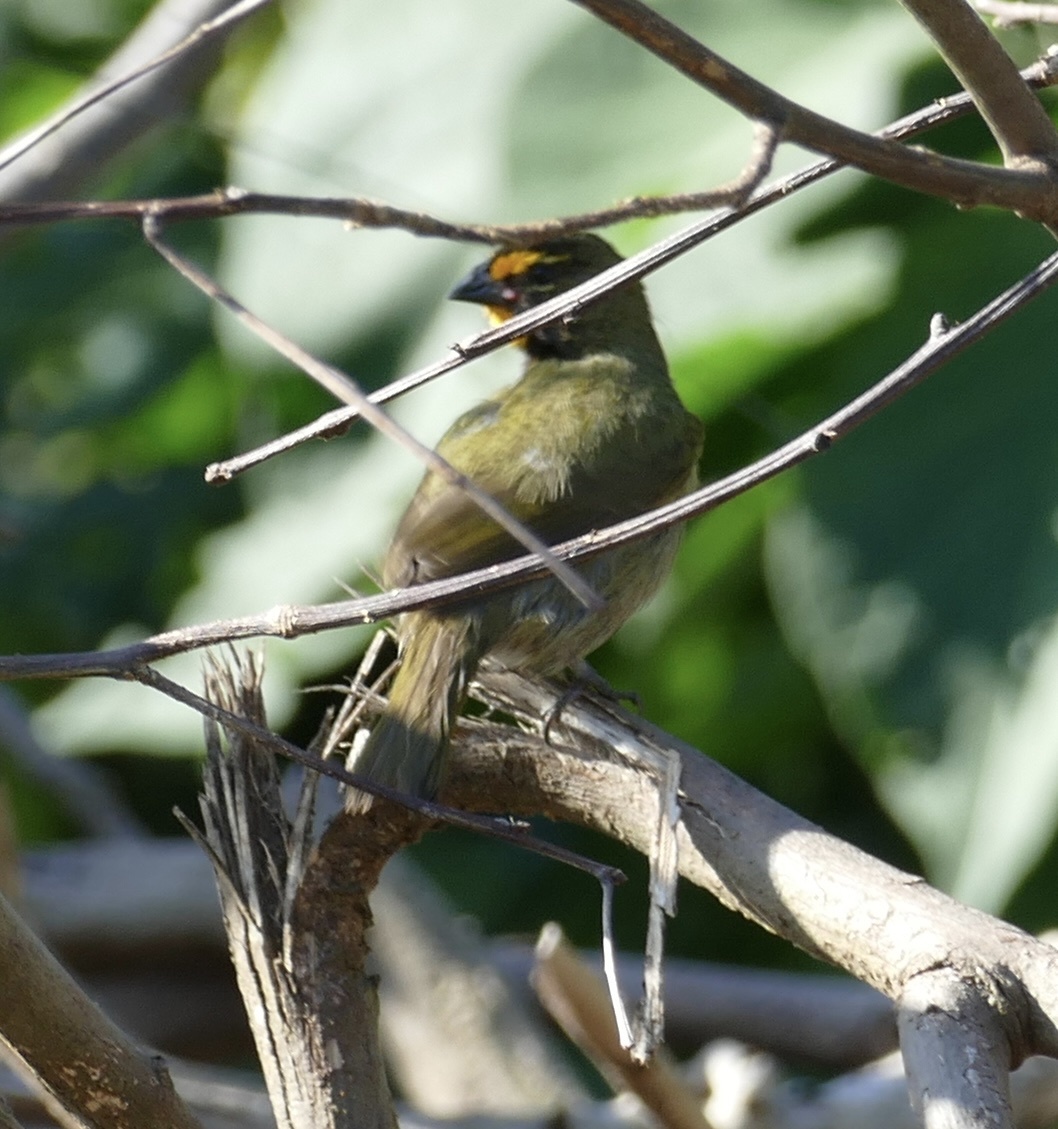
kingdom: Animalia
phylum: Chordata
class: Aves
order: Passeriformes
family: Thraupidae
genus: Tiaris
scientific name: Tiaris olivaceus
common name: Yellow-faced grassquit
